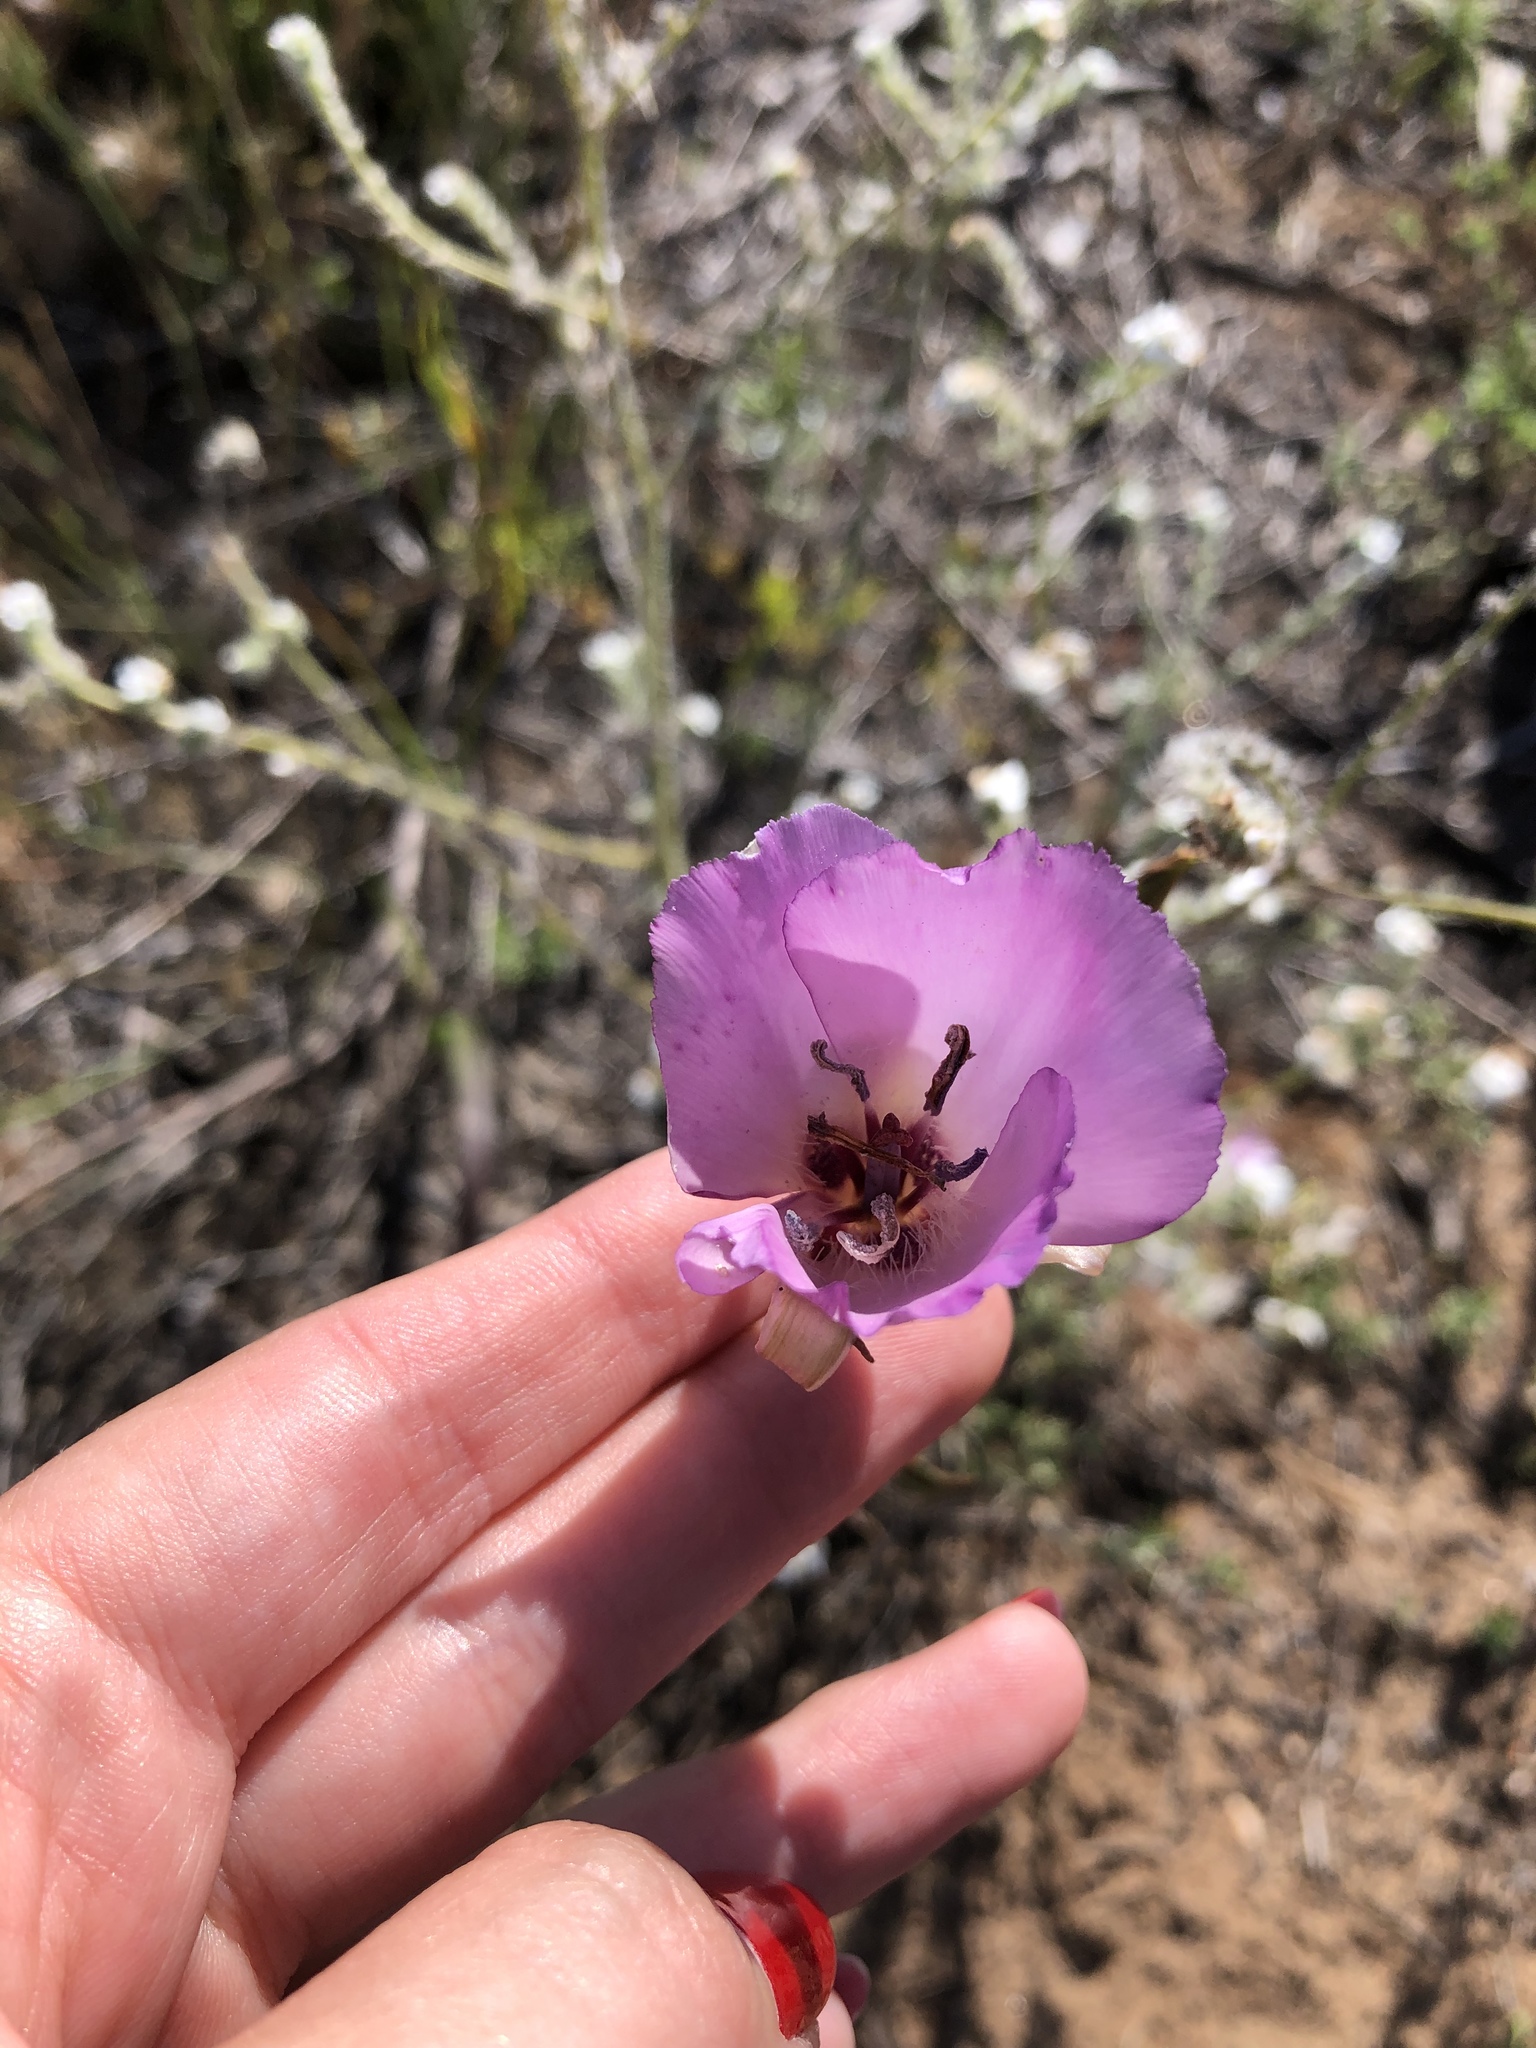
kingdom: Plantae
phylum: Tracheophyta
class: Liliopsida
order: Liliales
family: Liliaceae
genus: Calochortus
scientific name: Calochortus splendens
